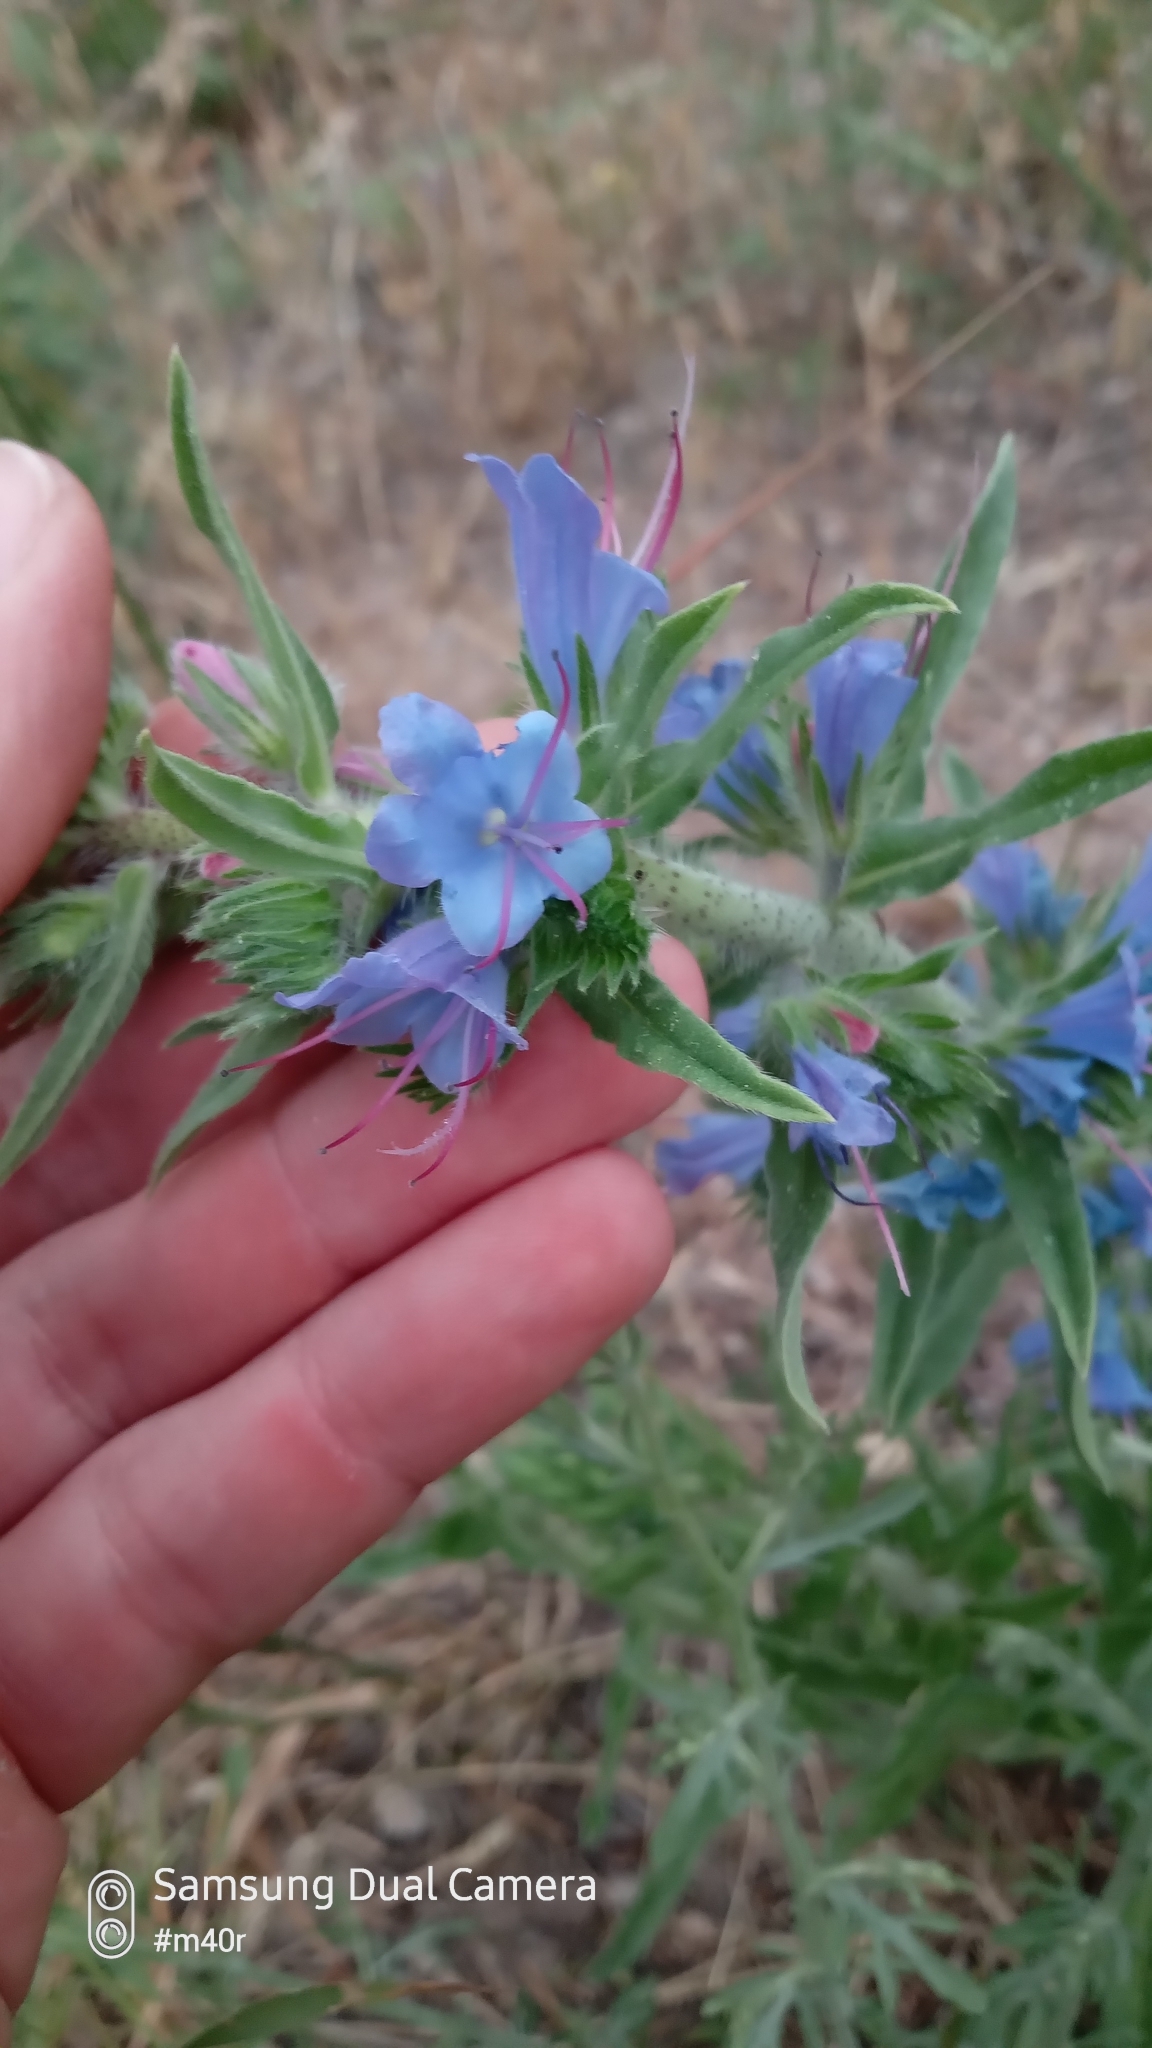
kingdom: Plantae
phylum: Tracheophyta
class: Magnoliopsida
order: Boraginales
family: Boraginaceae
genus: Echium
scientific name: Echium vulgare
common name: Common viper's bugloss
